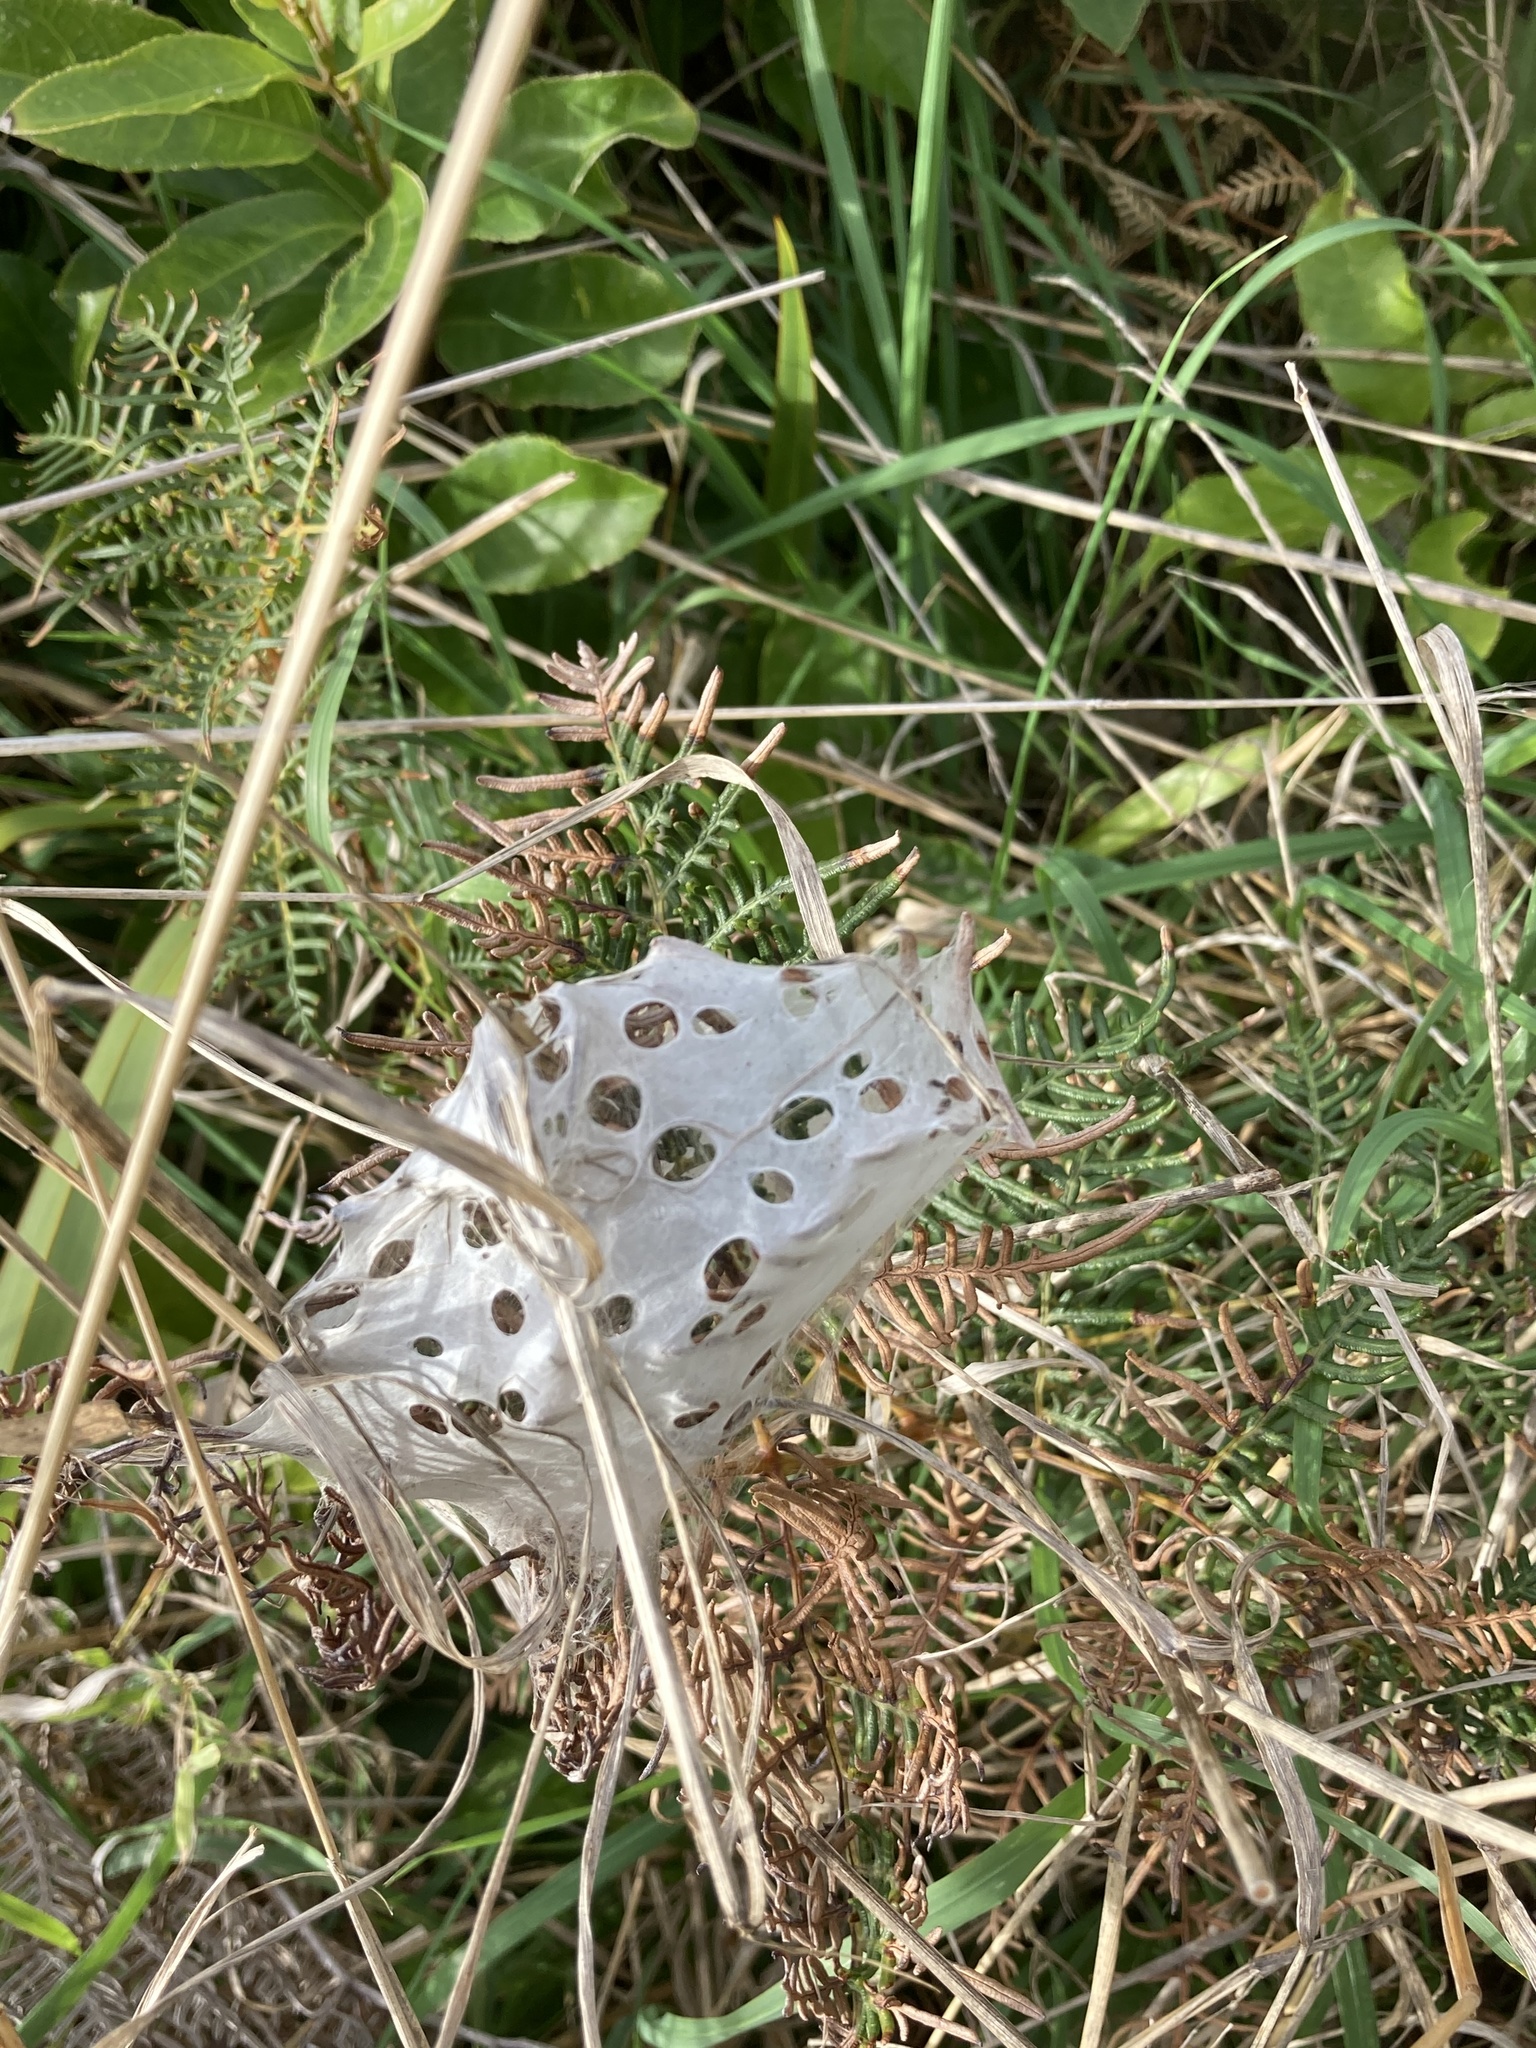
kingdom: Animalia
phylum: Arthropoda
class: Arachnida
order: Araneae
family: Pisauridae
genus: Dolomedes
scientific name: Dolomedes minor
